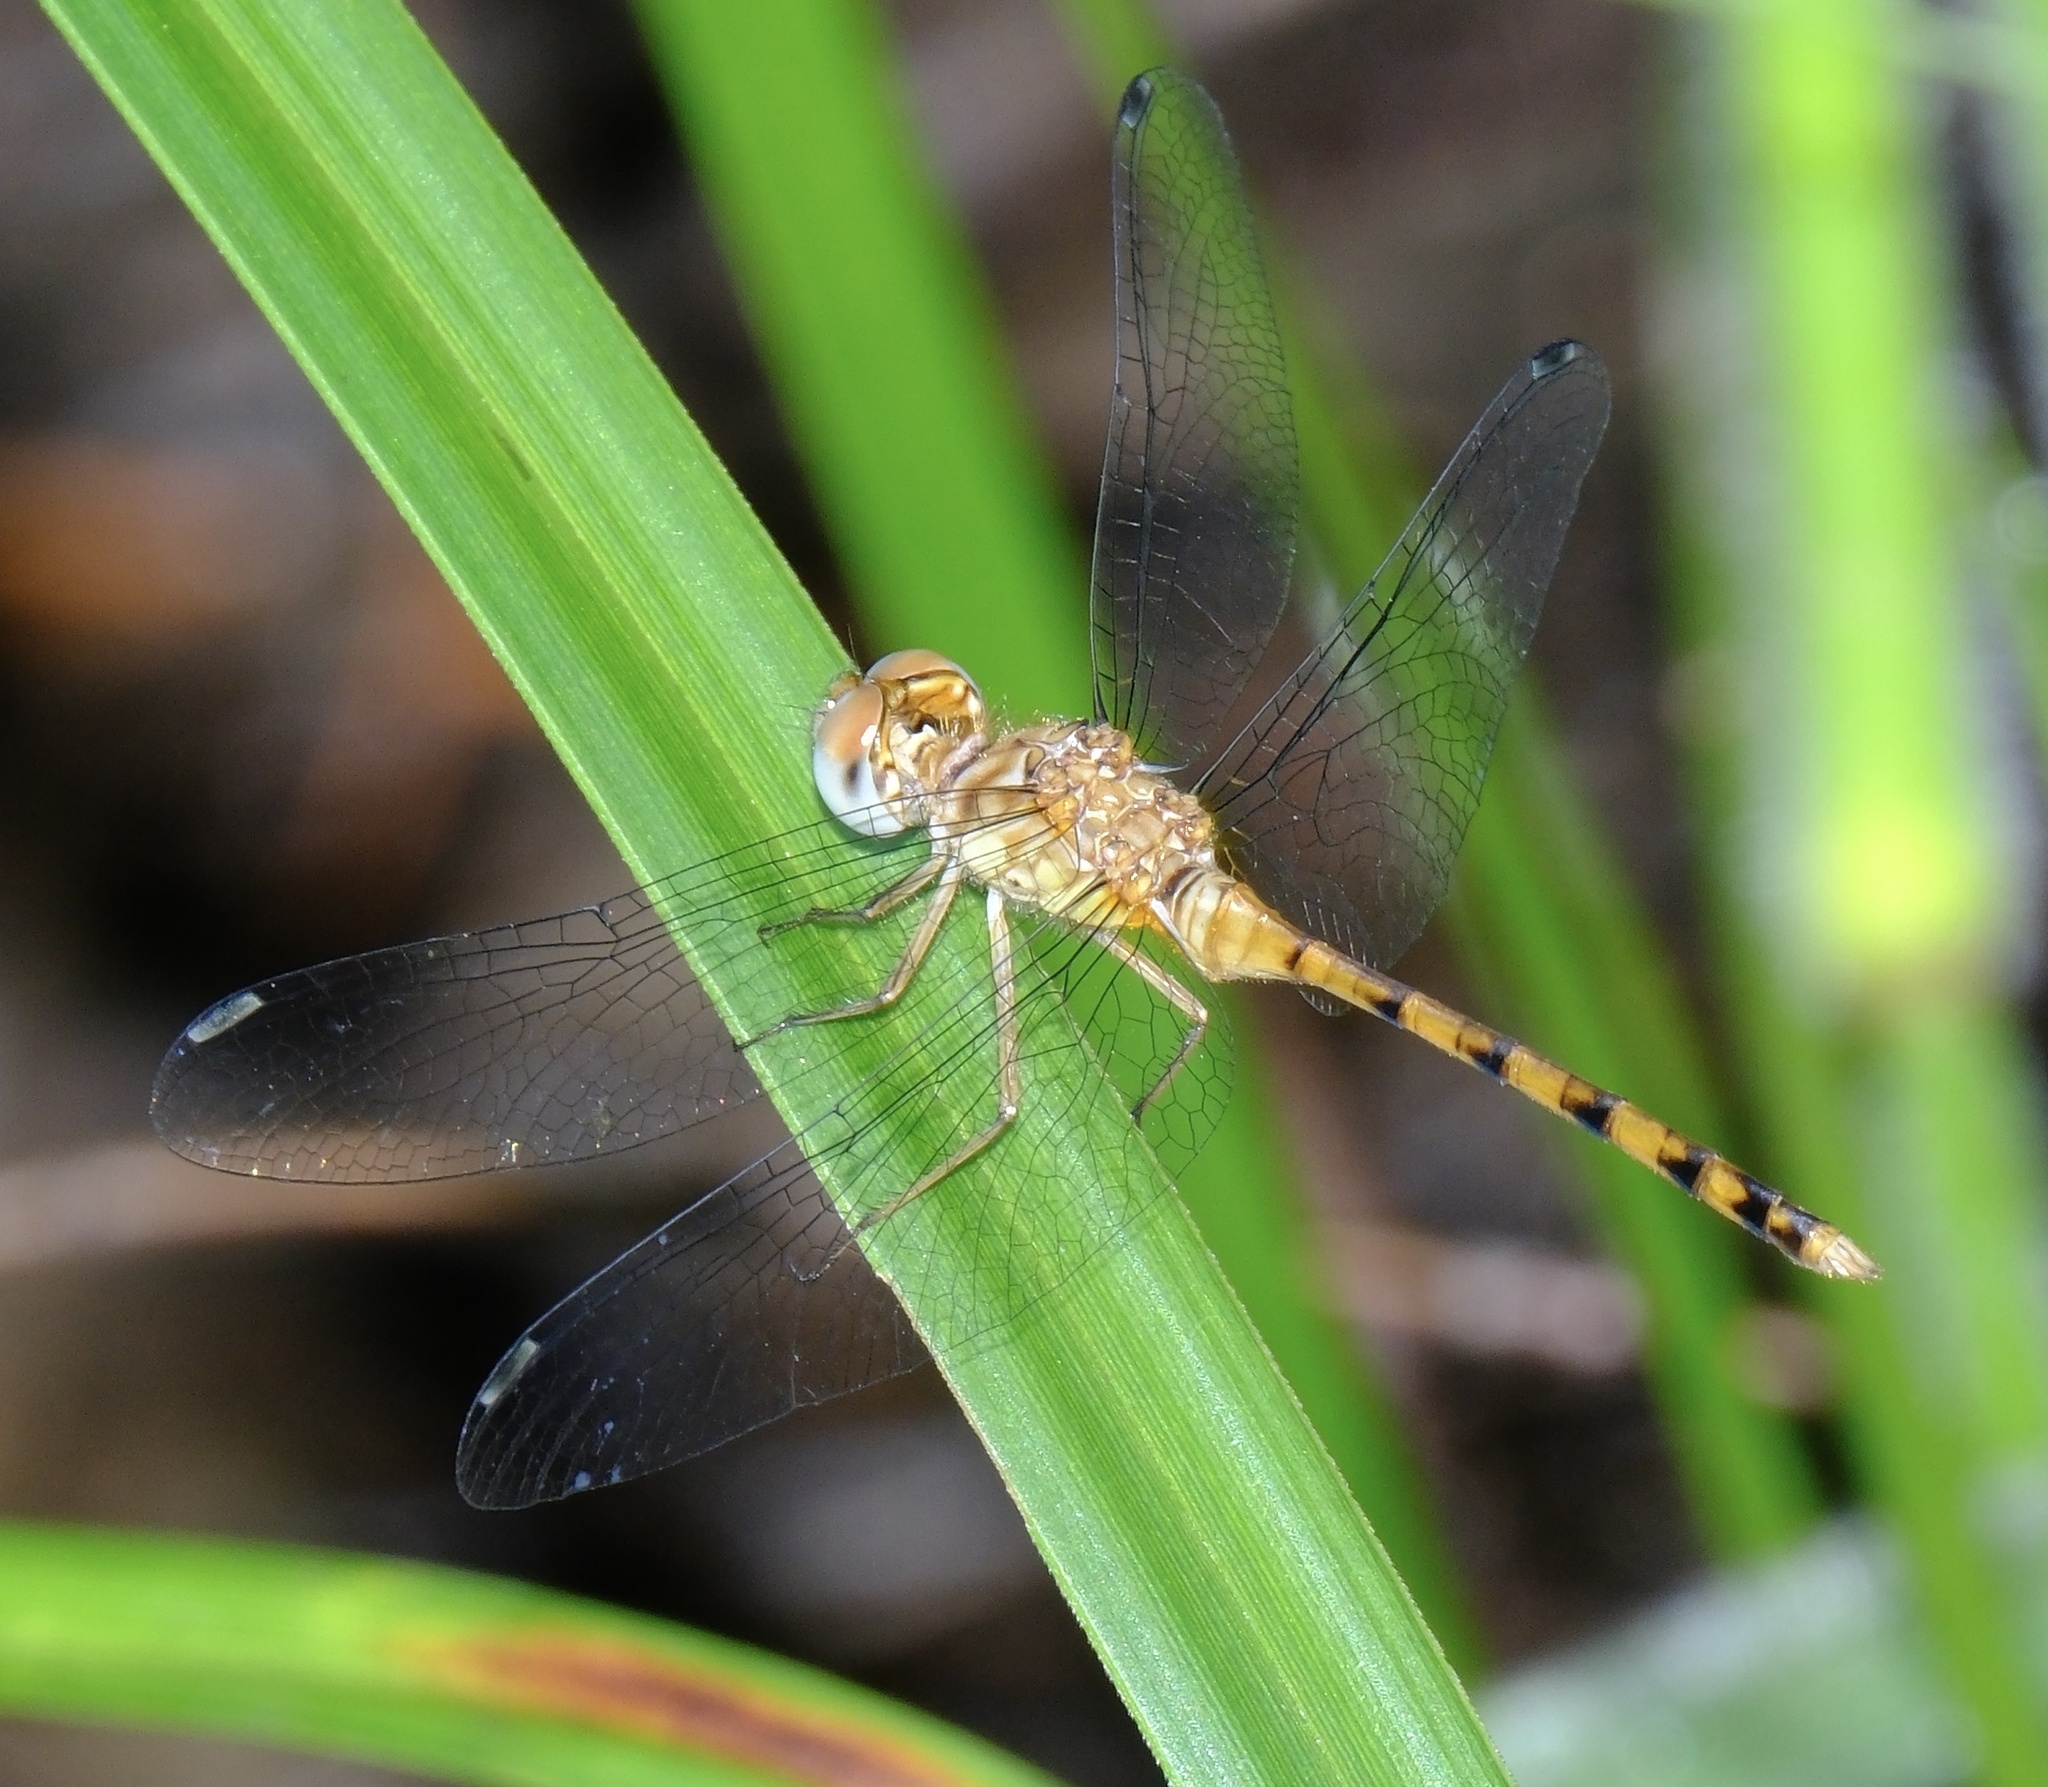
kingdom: Animalia
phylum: Arthropoda
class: Insecta
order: Odonata
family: Libellulidae
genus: Sympetrum
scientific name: Sympetrum ambiguum
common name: Blue-faced meadowhawk
